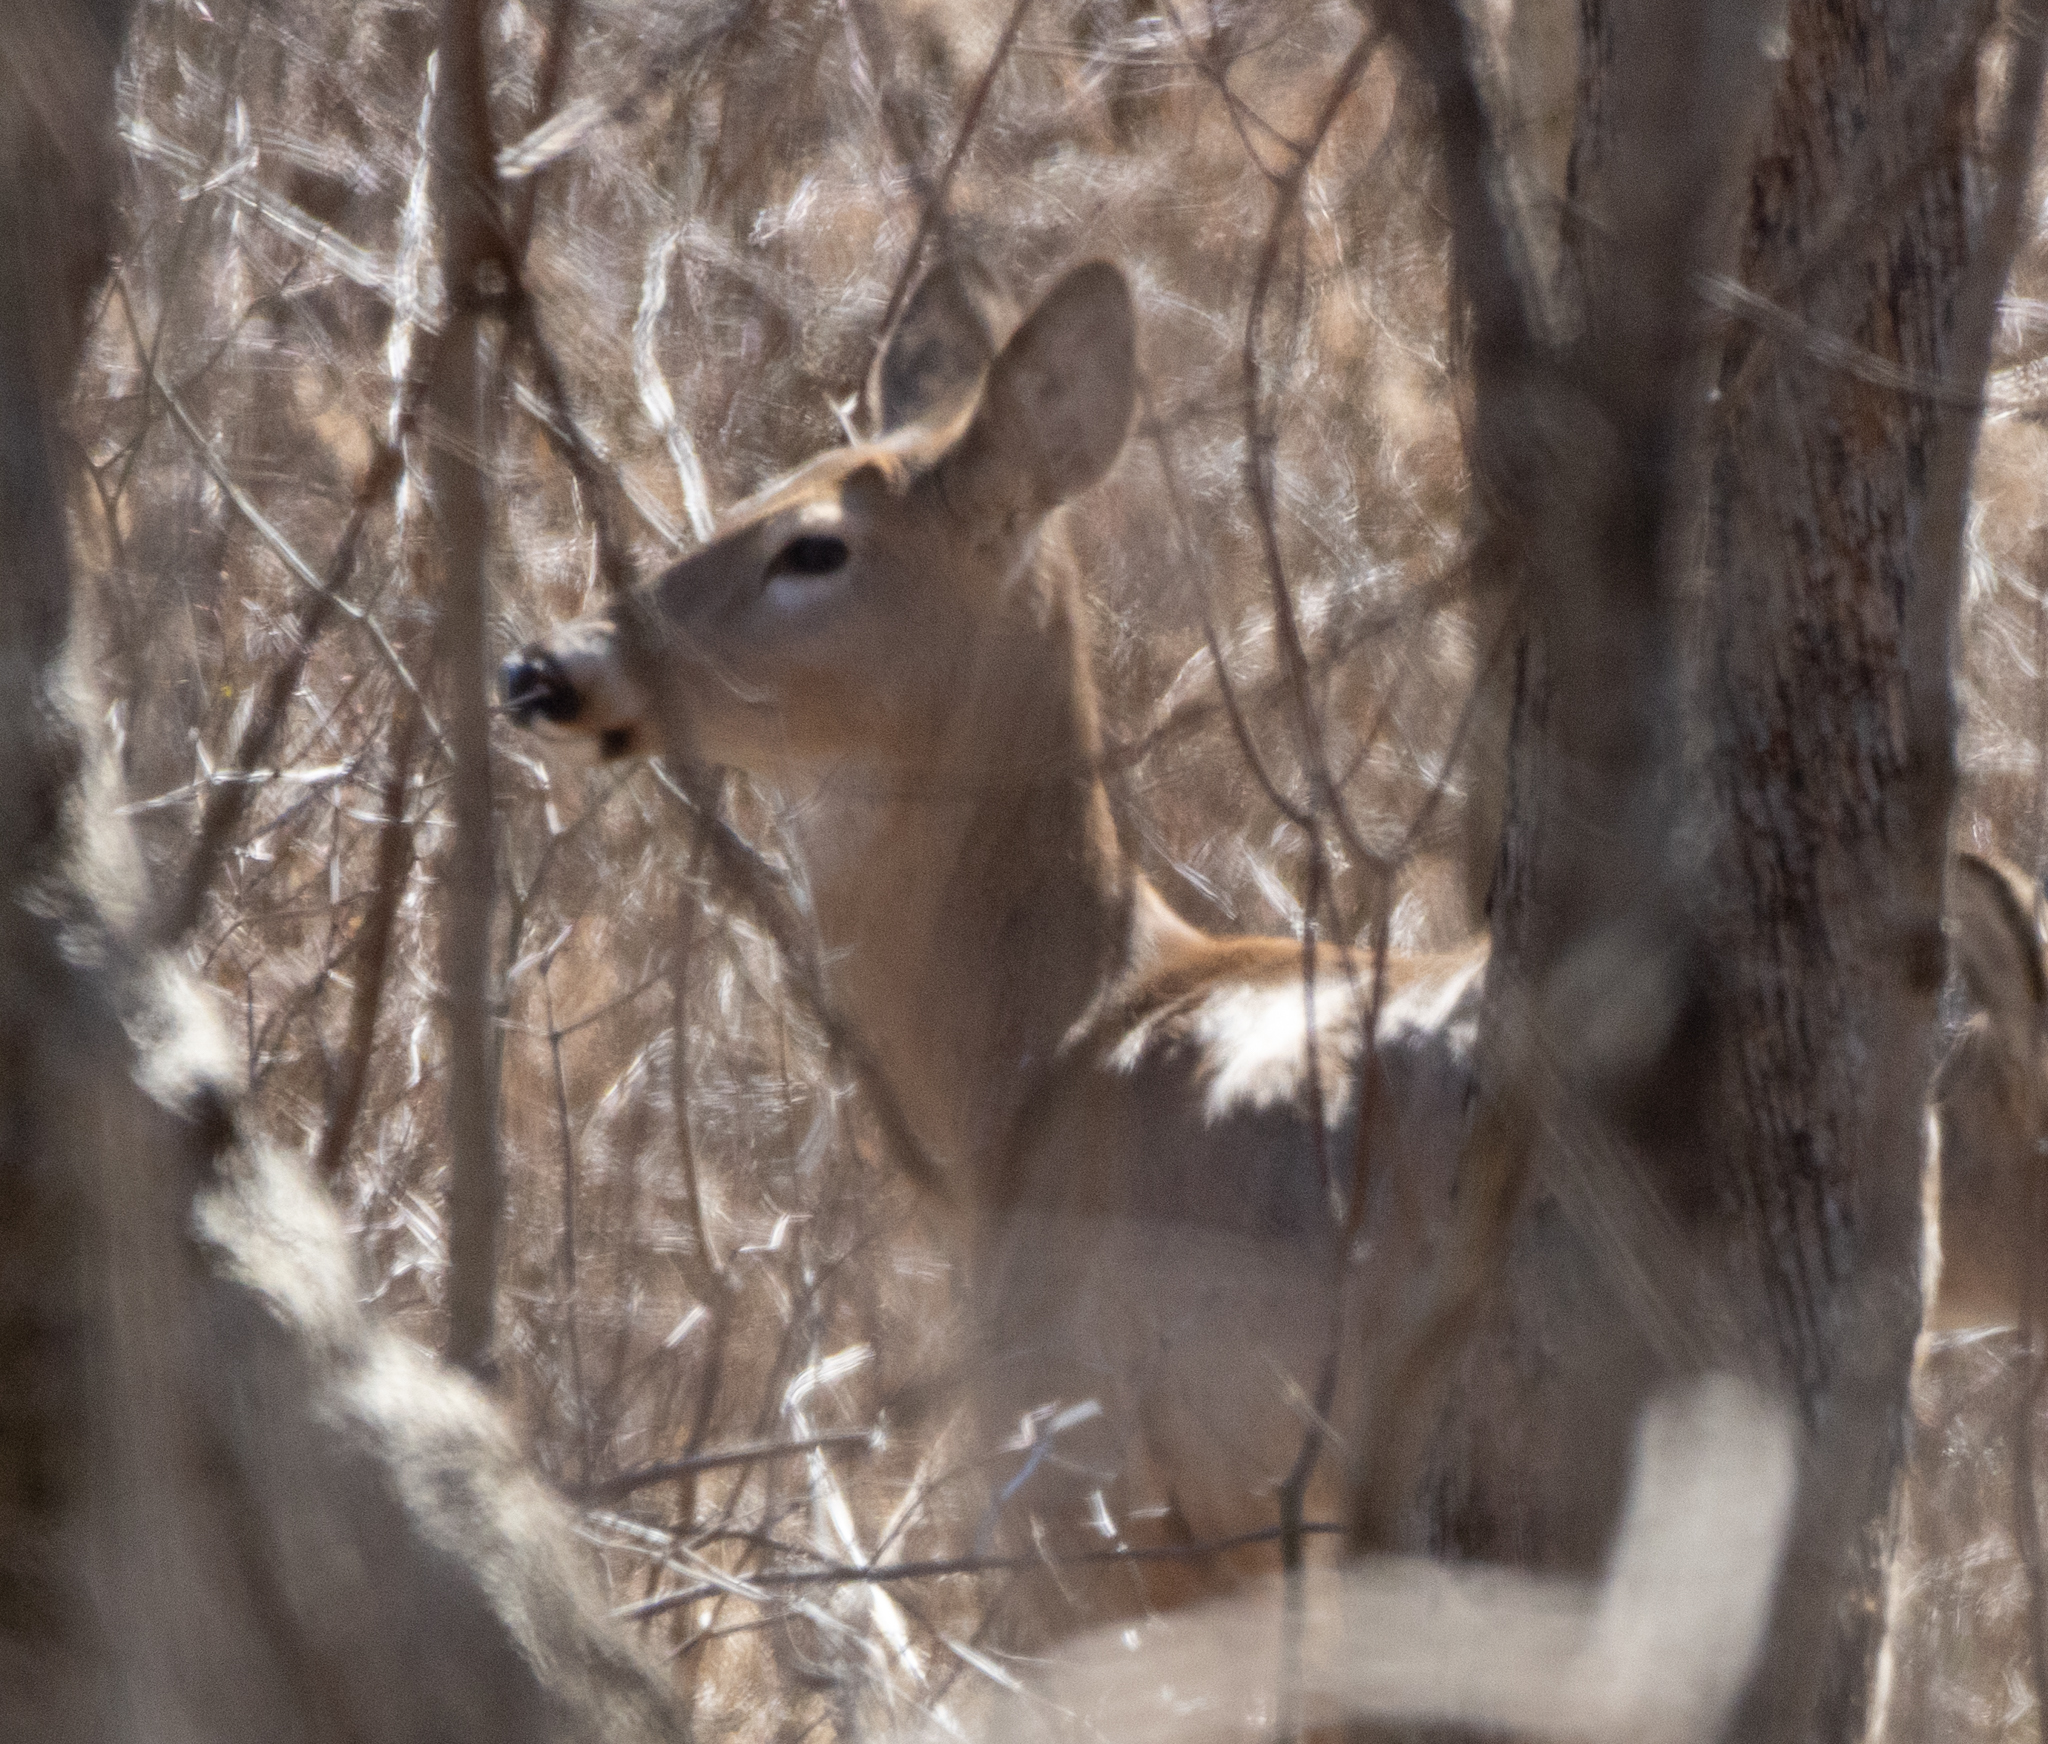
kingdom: Animalia
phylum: Chordata
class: Mammalia
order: Artiodactyla
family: Cervidae
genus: Odocoileus
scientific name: Odocoileus virginianus
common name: White-tailed deer
